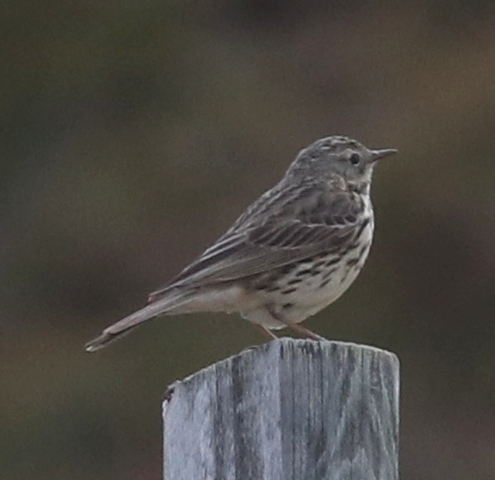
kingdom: Animalia
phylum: Chordata
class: Aves
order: Passeriformes
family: Motacillidae
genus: Anthus
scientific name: Anthus petrosus
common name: Eurasian rock pipit
